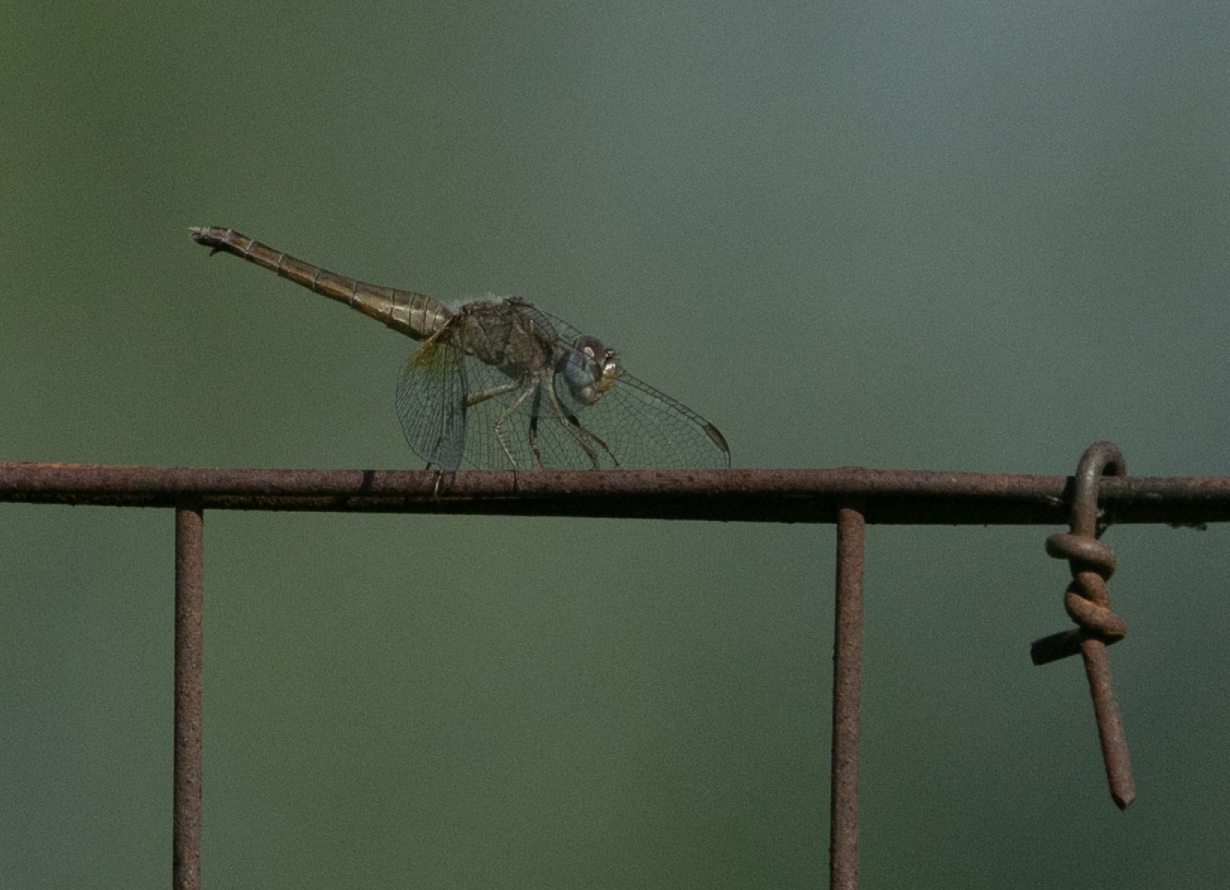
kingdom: Animalia
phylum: Arthropoda
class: Insecta
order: Odonata
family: Libellulidae
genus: Crocothemis
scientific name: Crocothemis erythraea
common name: Scarlet dragonfly
